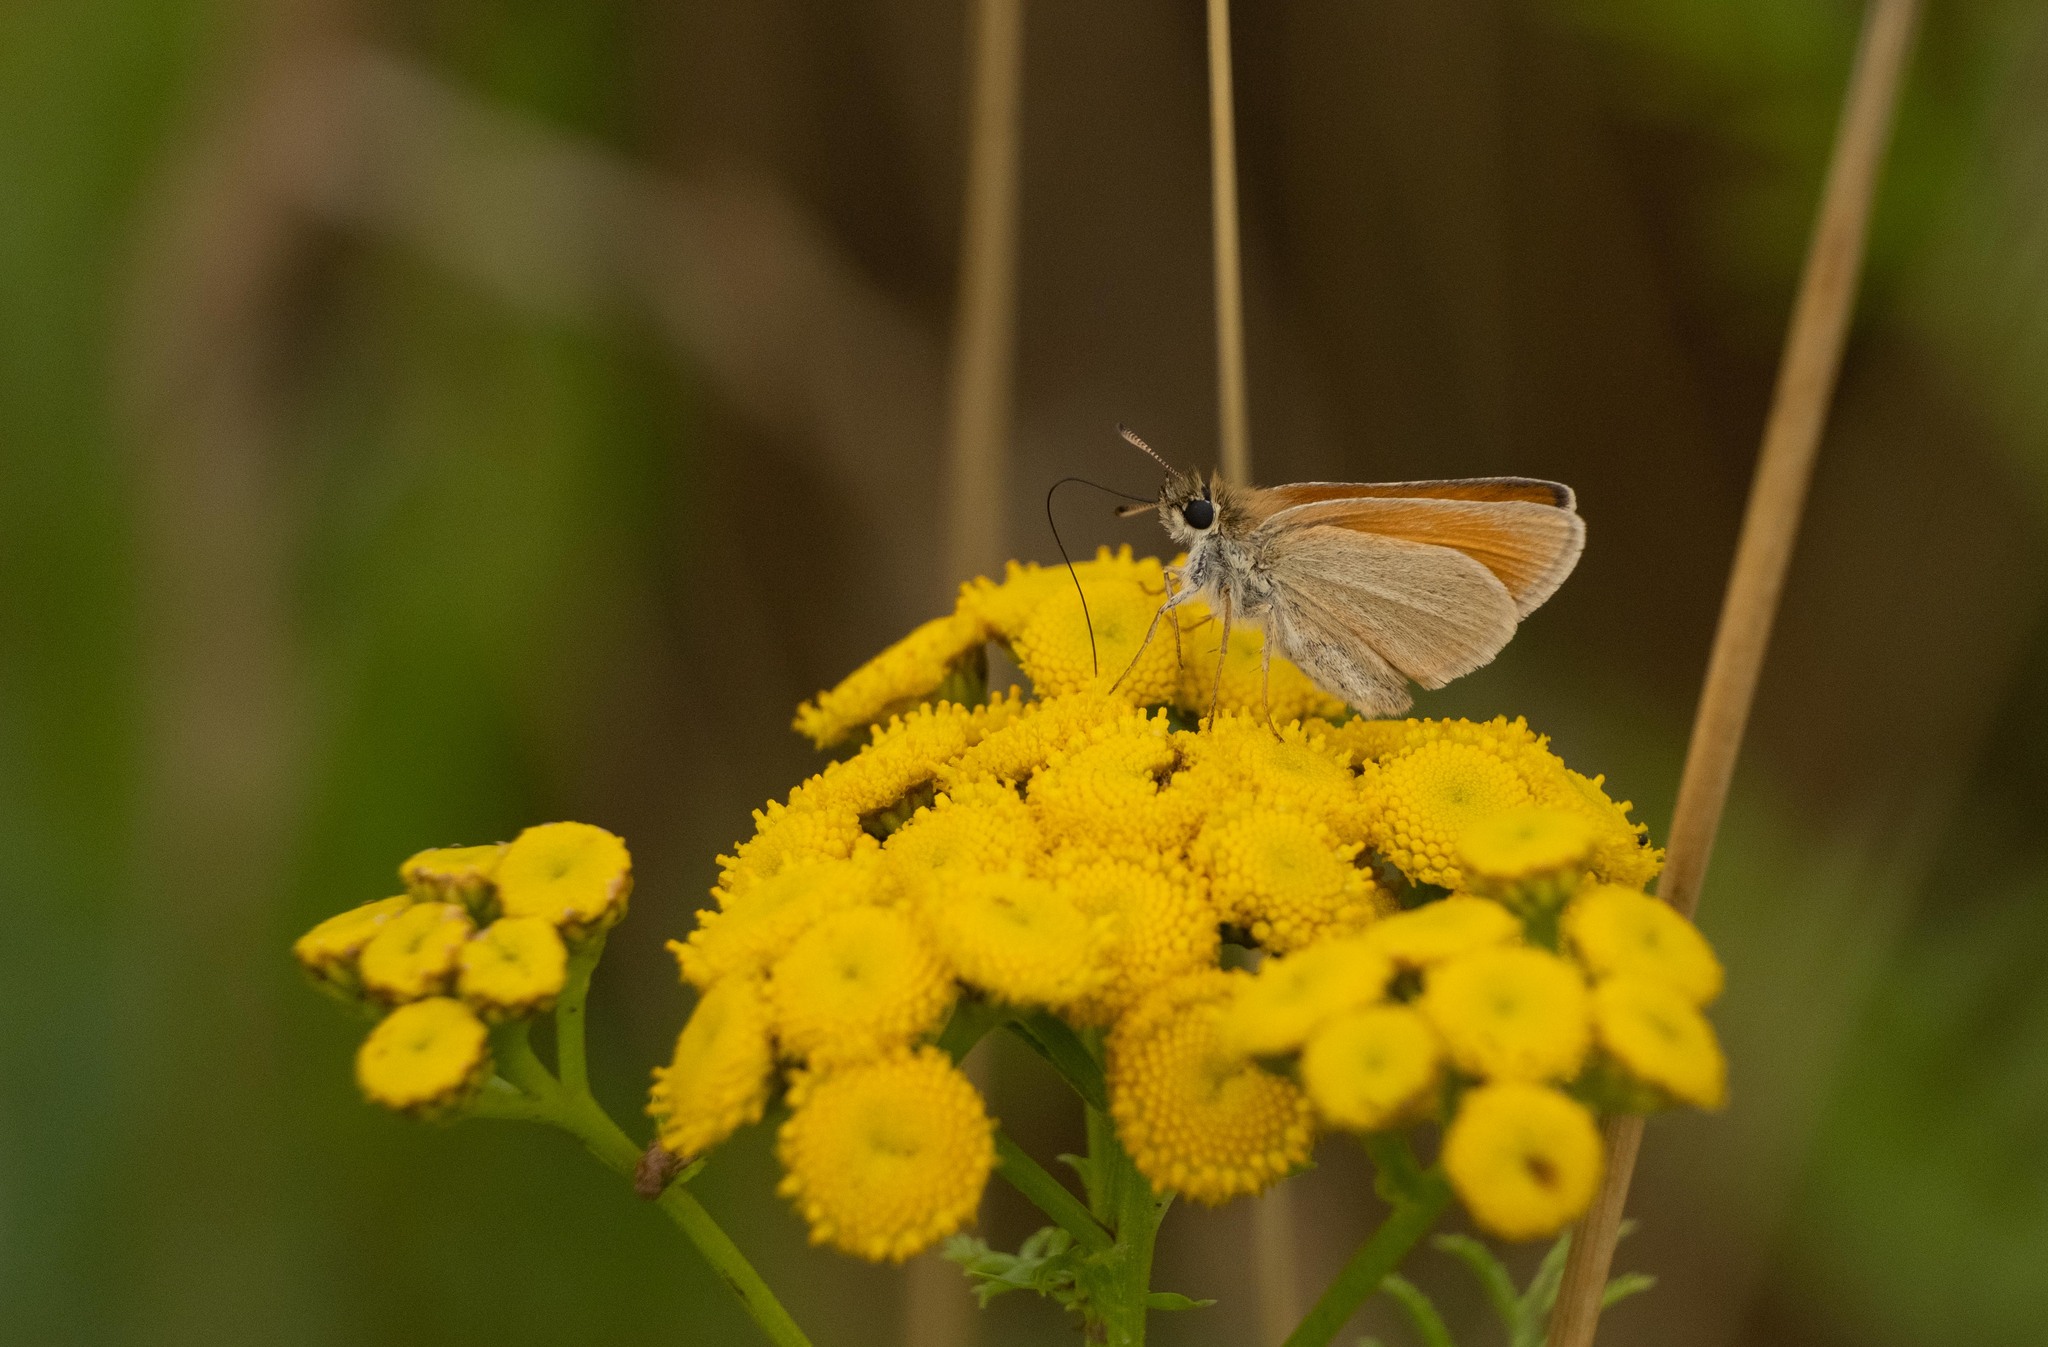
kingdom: Animalia
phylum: Arthropoda
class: Insecta
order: Lepidoptera
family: Hesperiidae
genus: Thymelicus
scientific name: Thymelicus lineola
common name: Essex skipper
